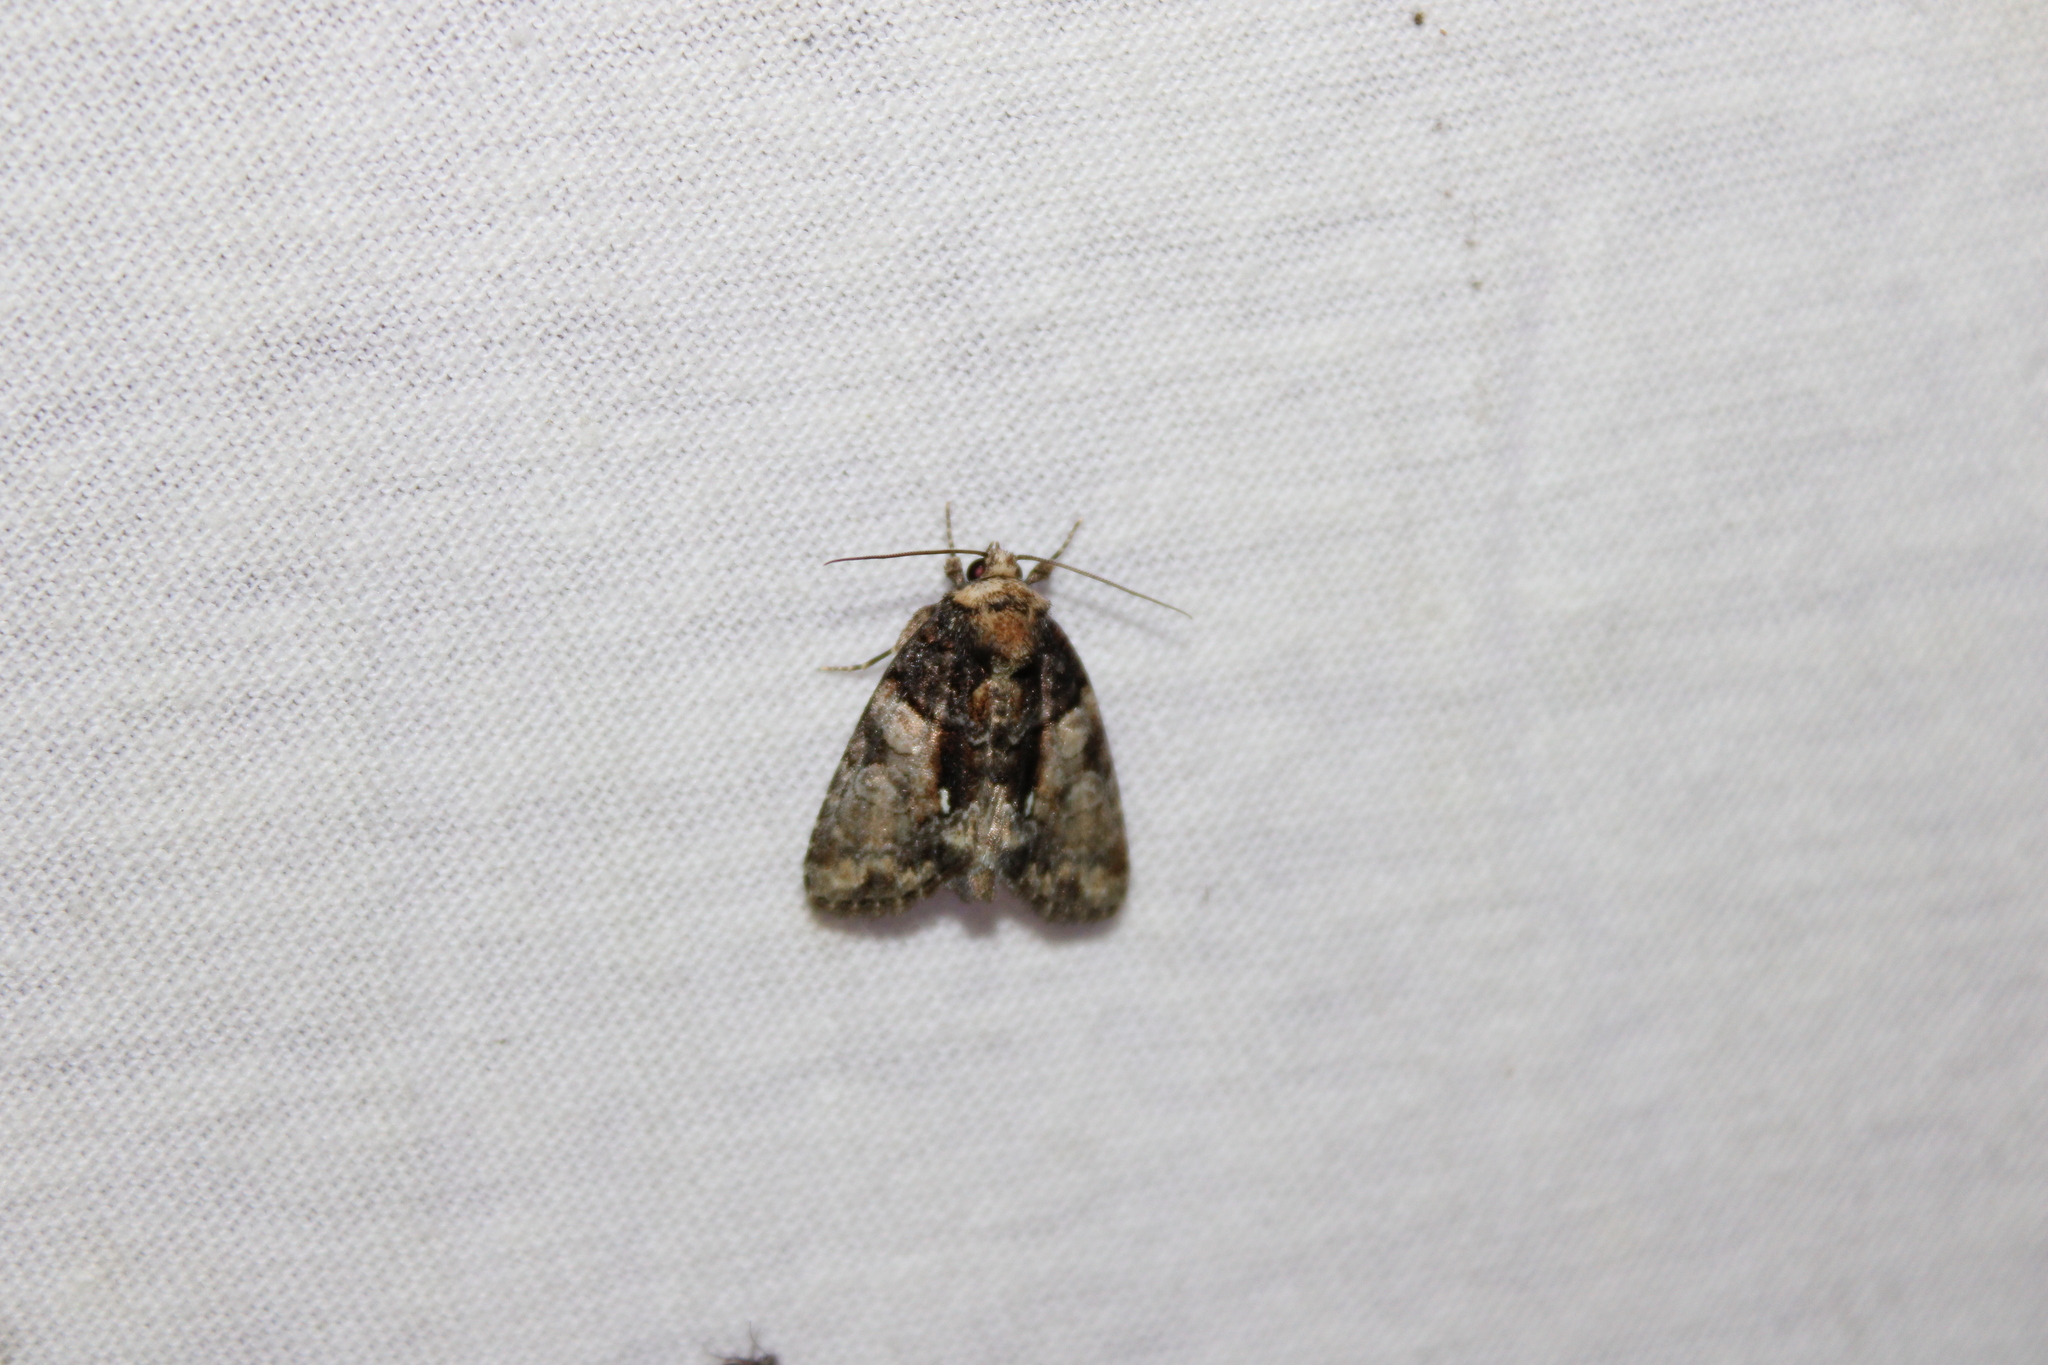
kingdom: Animalia
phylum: Arthropoda
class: Insecta
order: Lepidoptera
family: Noctuidae
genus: Chytonix
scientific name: Chytonix palliatricula
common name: Cloaked marvel
